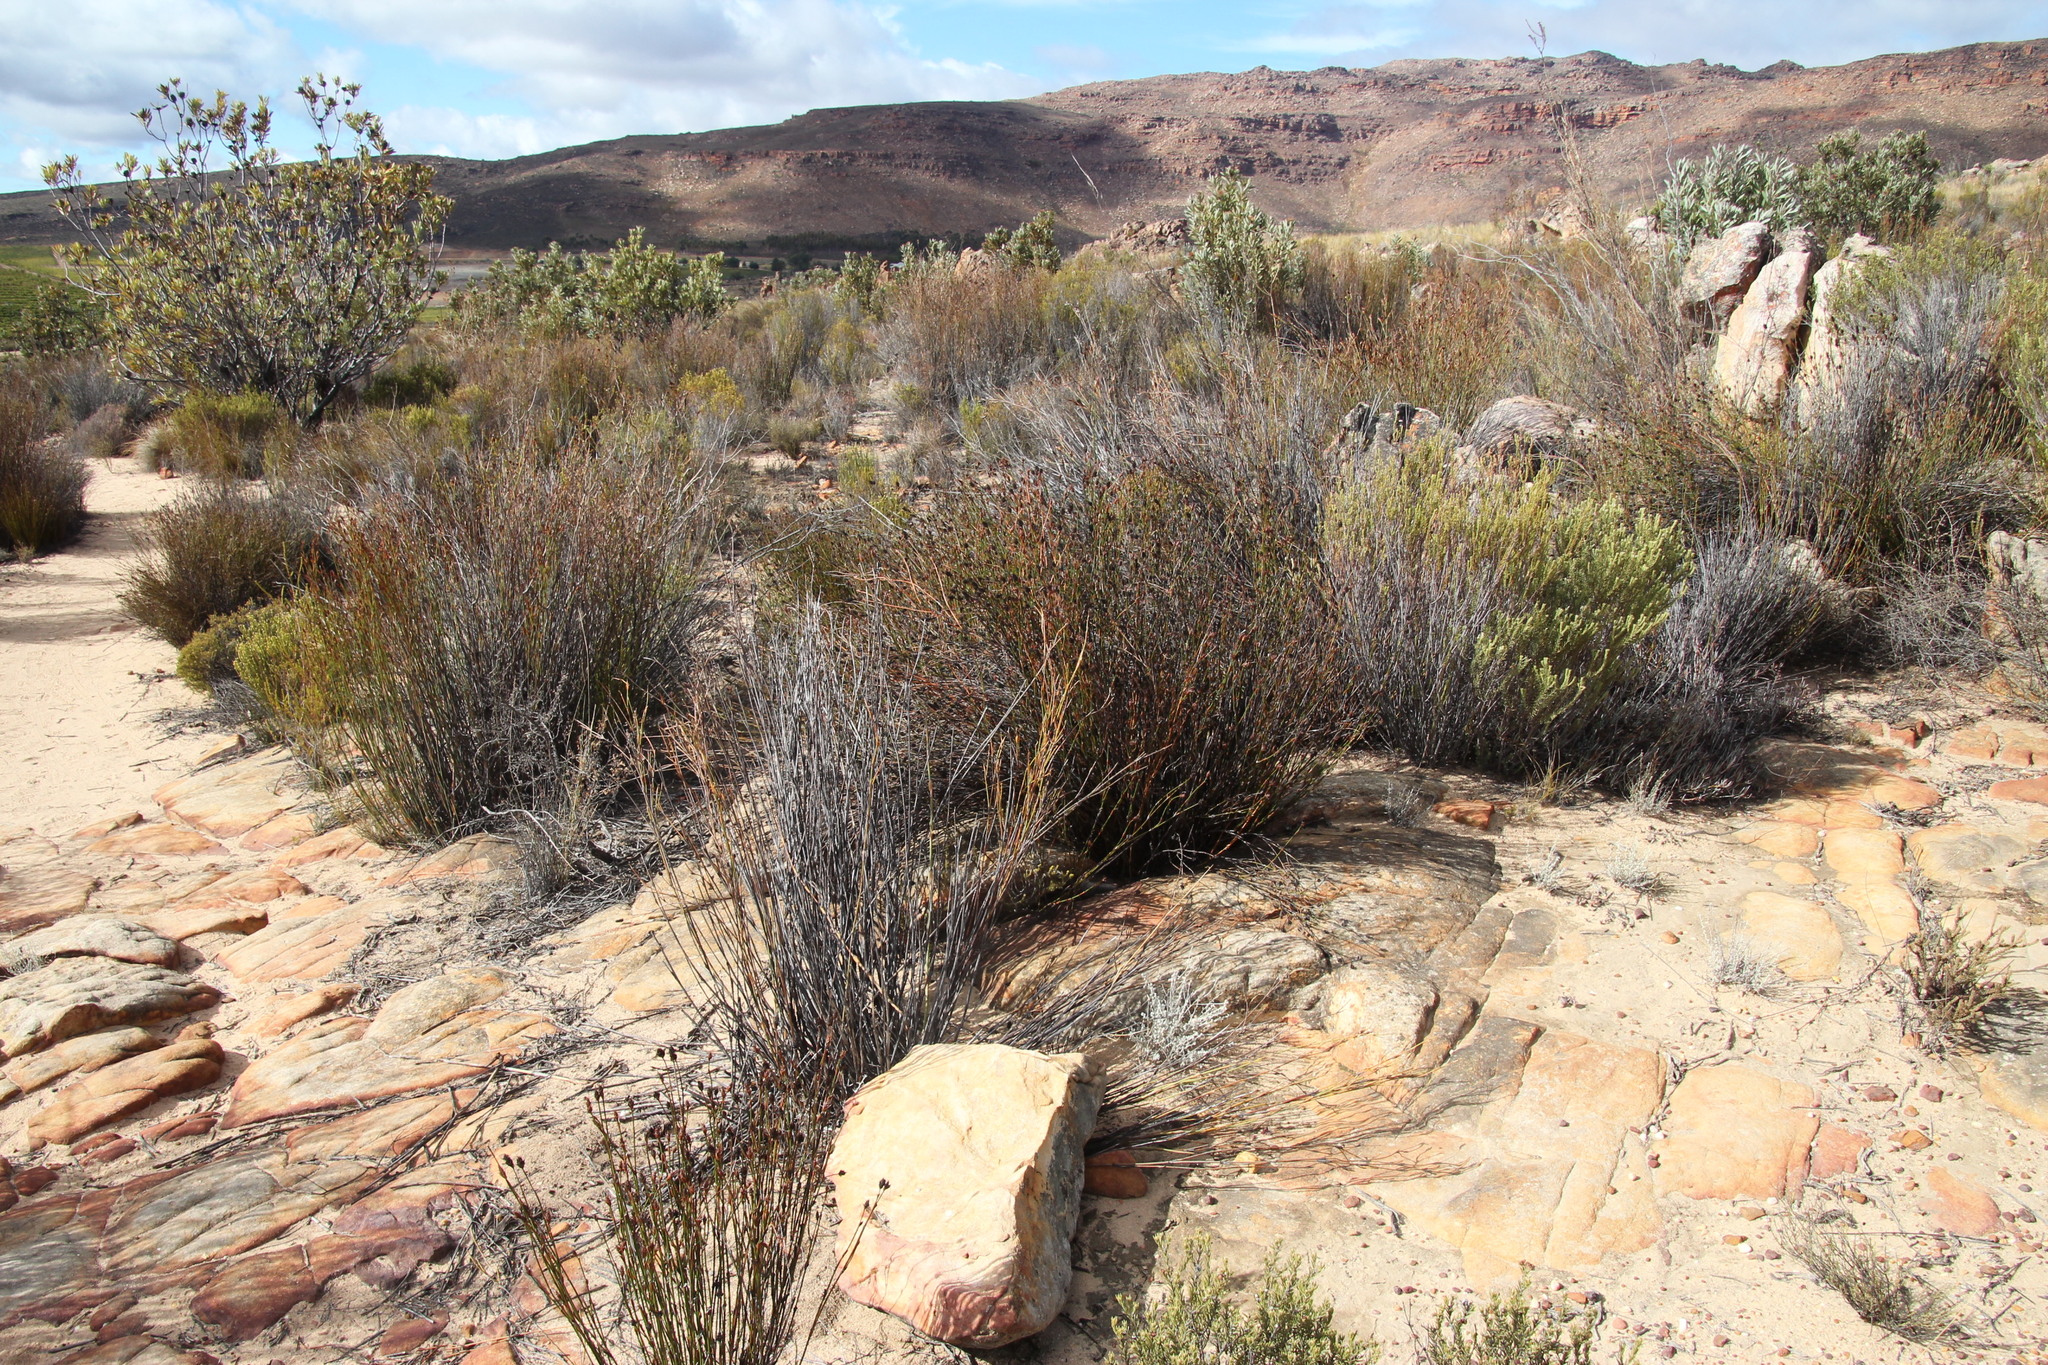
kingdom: Plantae
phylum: Tracheophyta
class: Liliopsida
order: Poales
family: Restionaceae
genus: Restio
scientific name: Restio ocreatus
